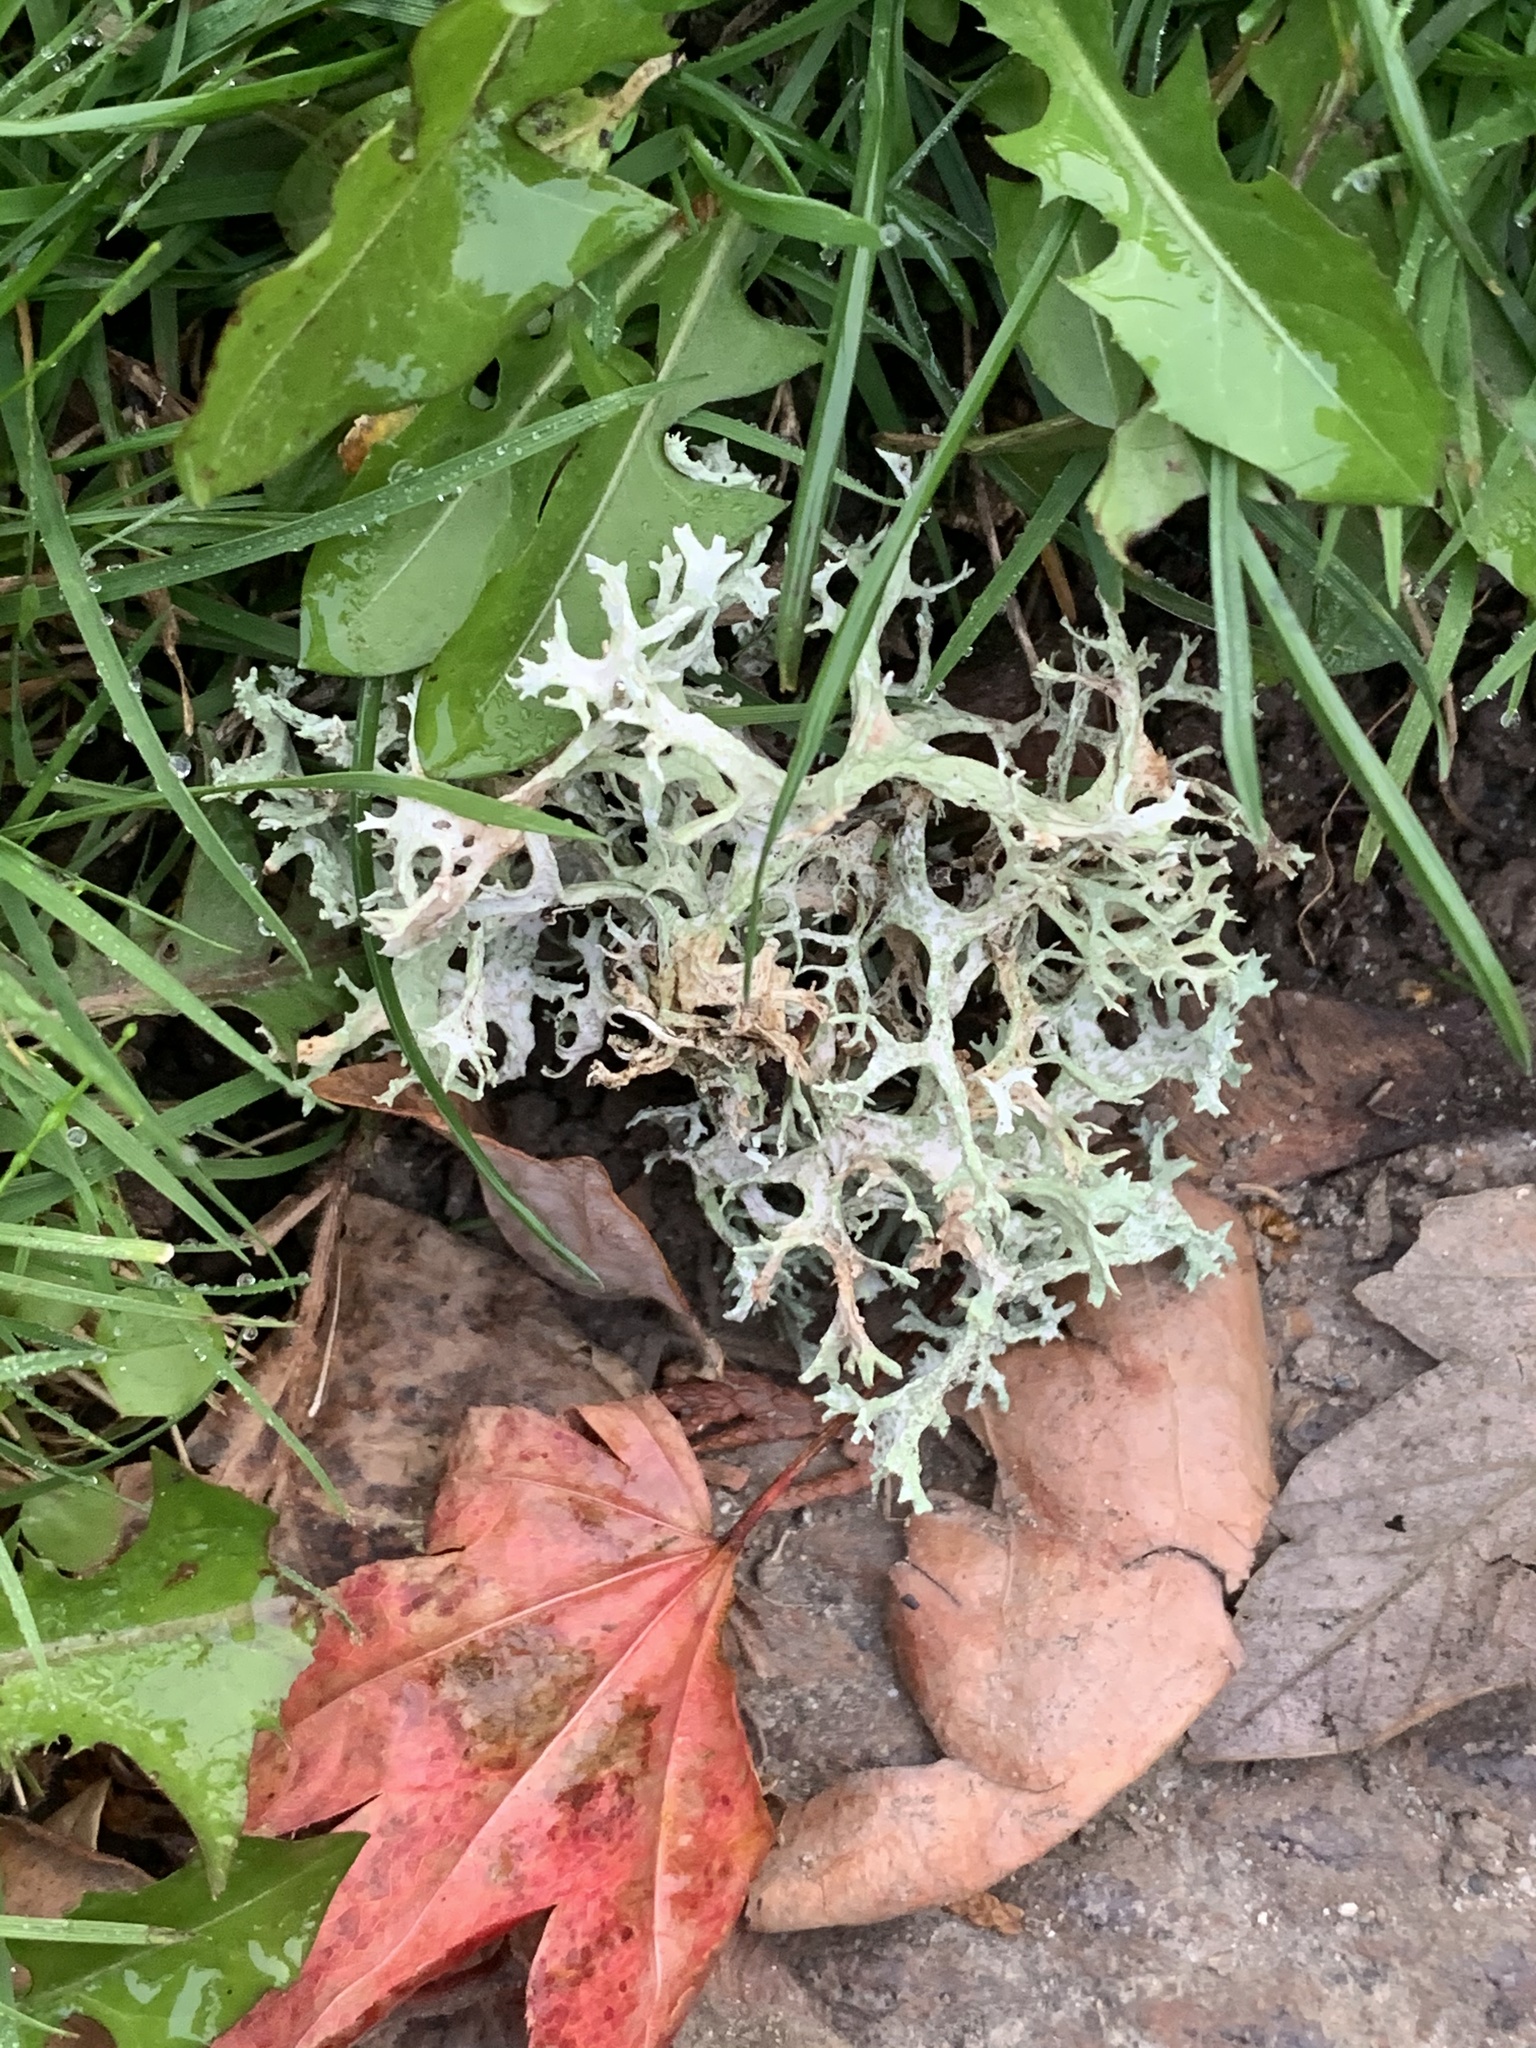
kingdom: Fungi
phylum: Ascomycota
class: Lecanoromycetes
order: Lecanorales
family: Parmeliaceae
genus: Evernia
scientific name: Evernia prunastri
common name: Oak moss
